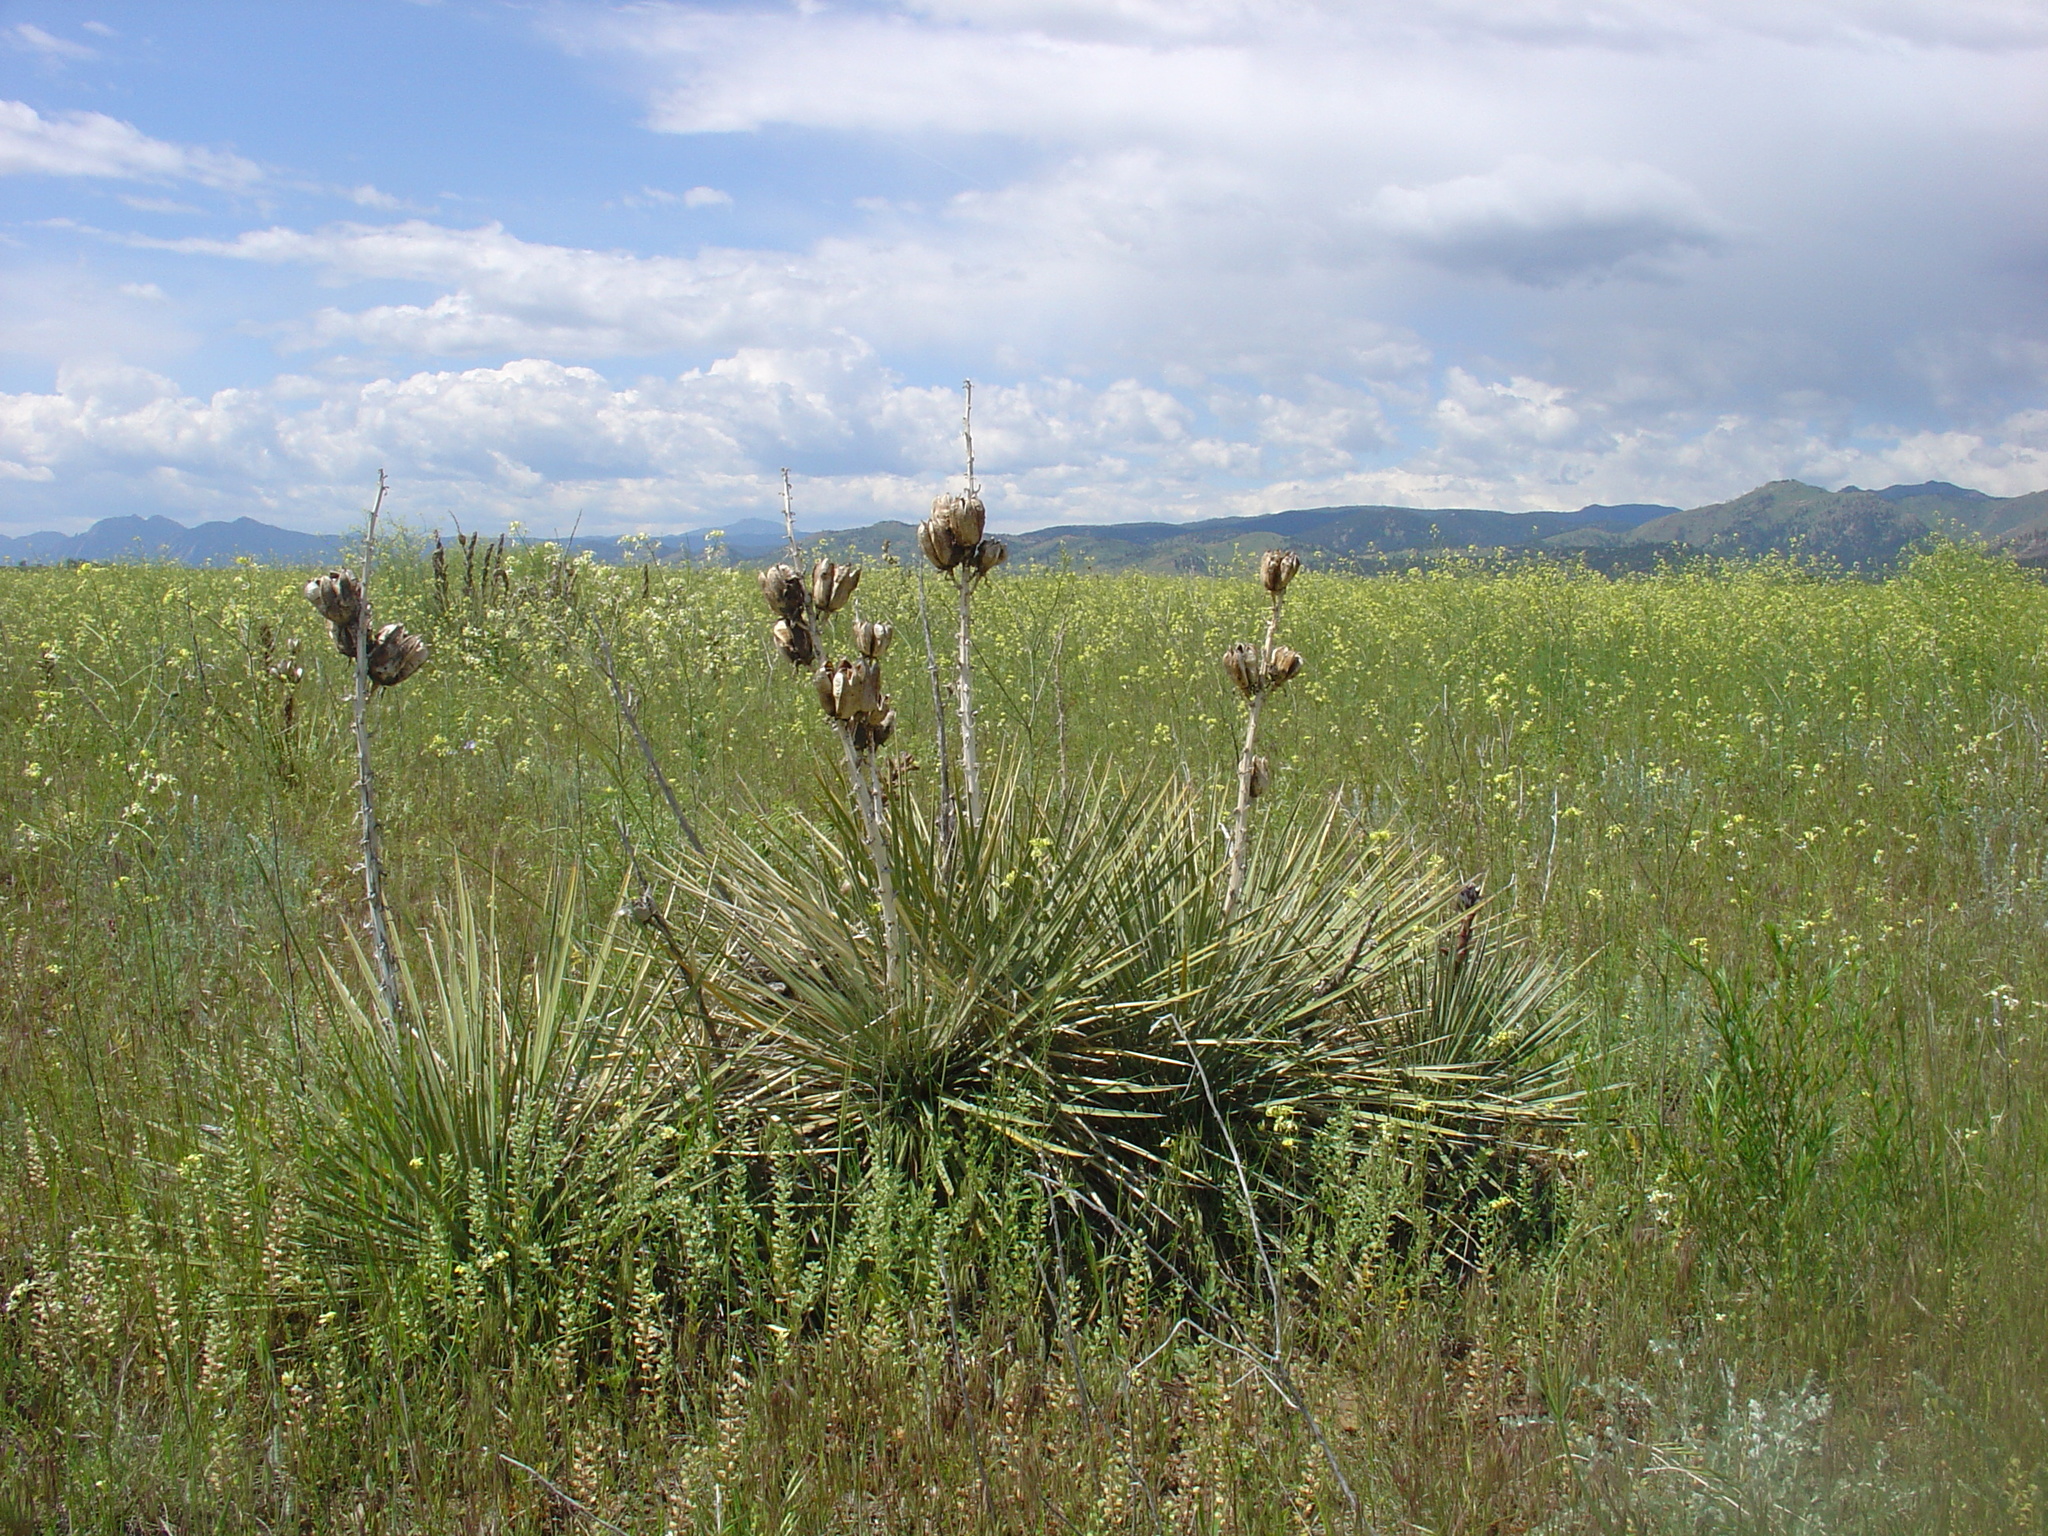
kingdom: Plantae
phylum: Tracheophyta
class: Liliopsida
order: Asparagales
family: Asparagaceae
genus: Yucca
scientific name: Yucca glauca
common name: Great plains yucca
